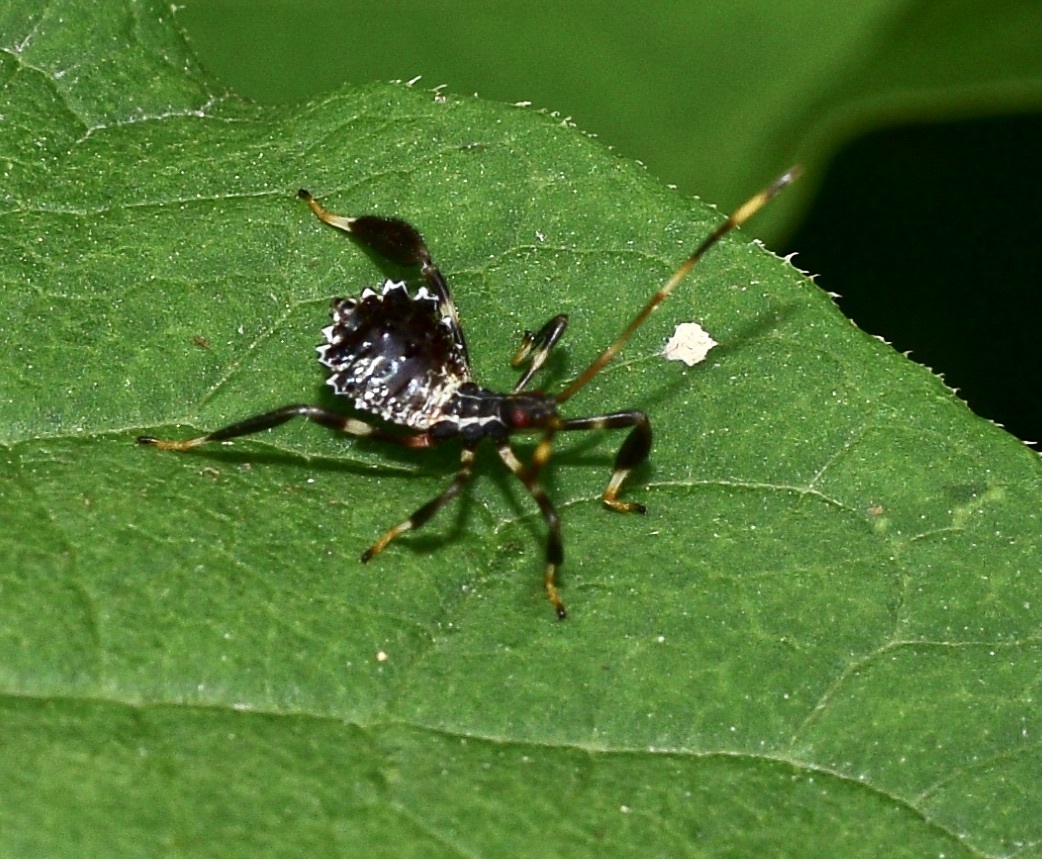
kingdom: Animalia
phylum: Arthropoda
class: Insecta
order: Hemiptera
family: Coreidae
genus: Acanthocephala
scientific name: Acanthocephala terminalis
